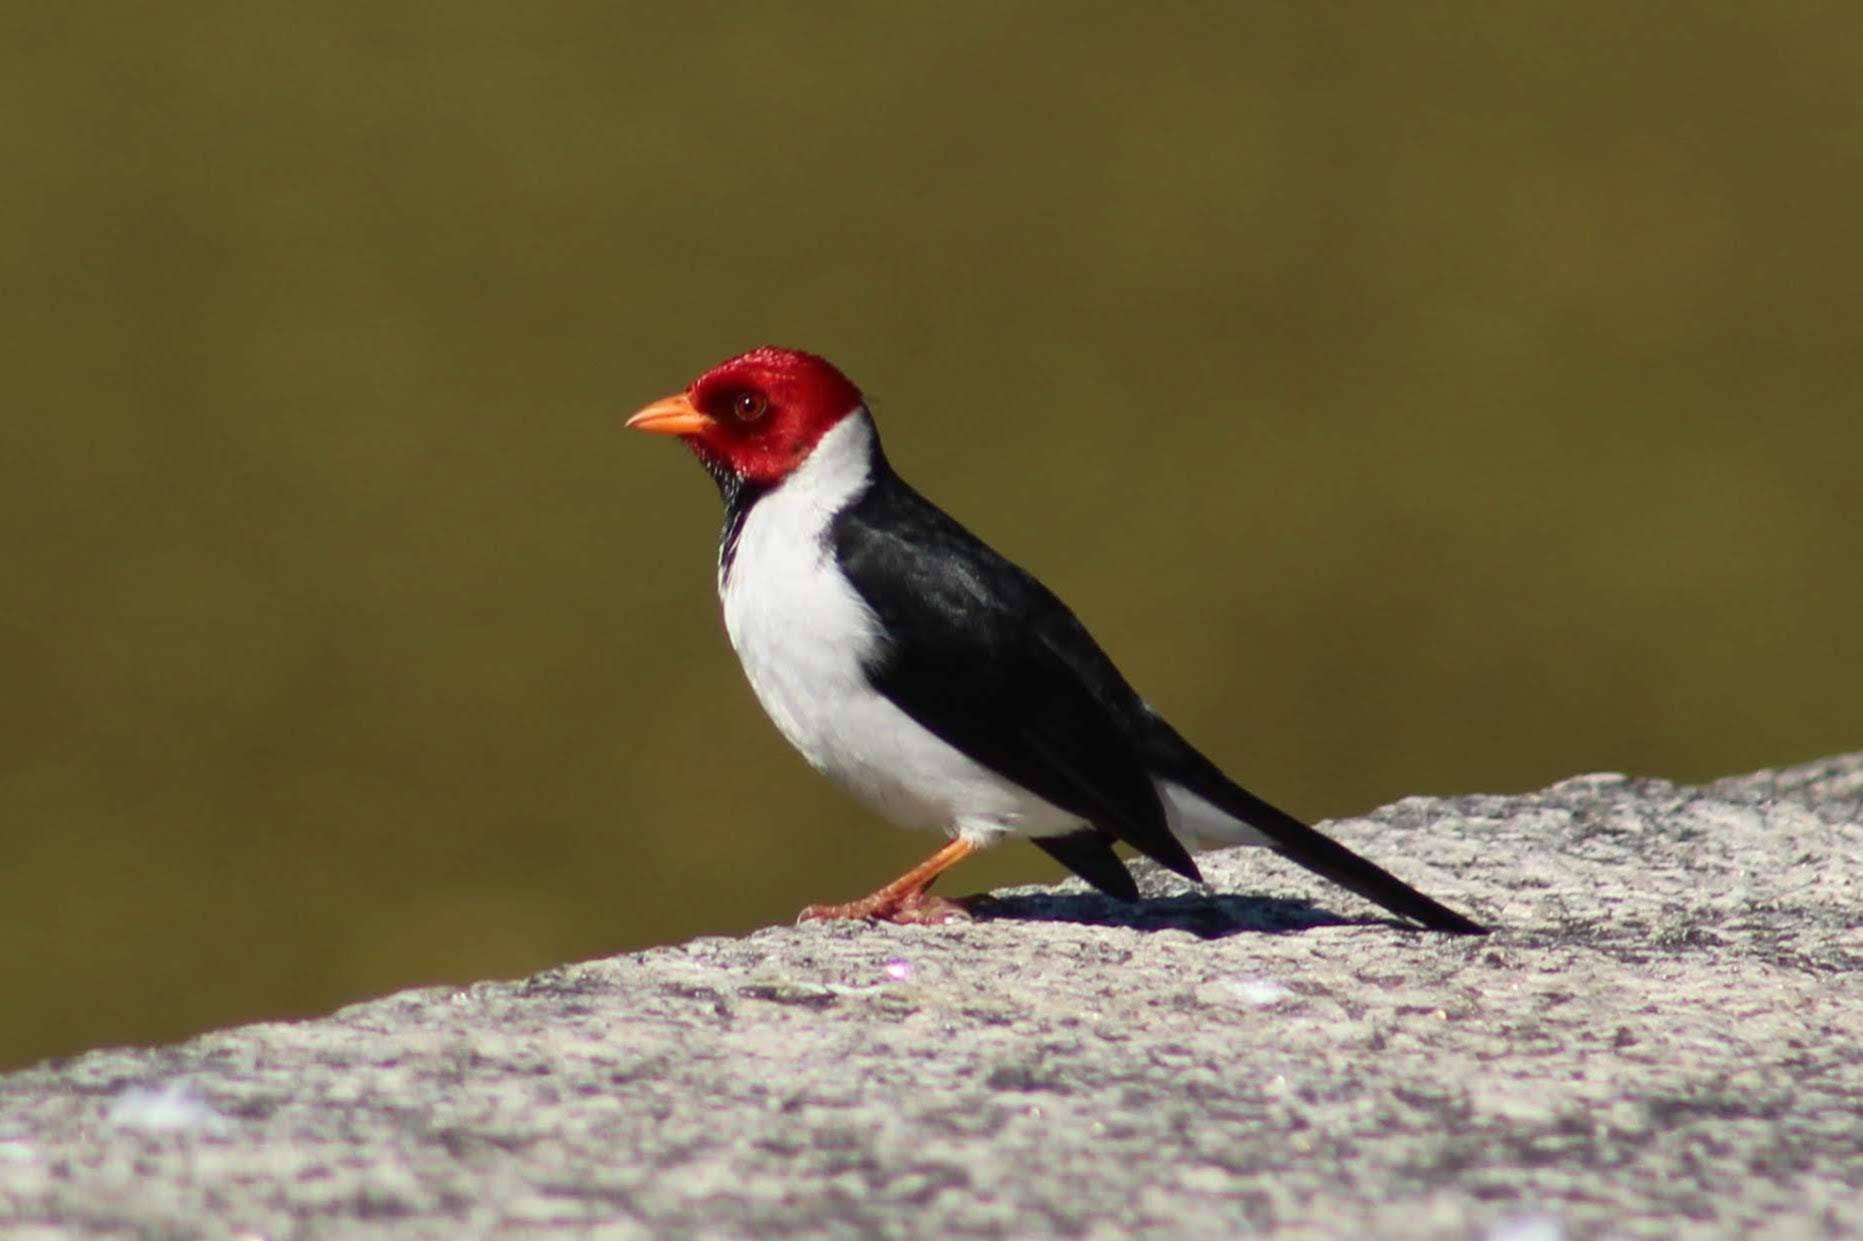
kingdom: Animalia
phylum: Chordata
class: Aves
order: Passeriformes
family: Thraupidae
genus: Paroaria
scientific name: Paroaria capitata
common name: Yellow-billed cardinal
